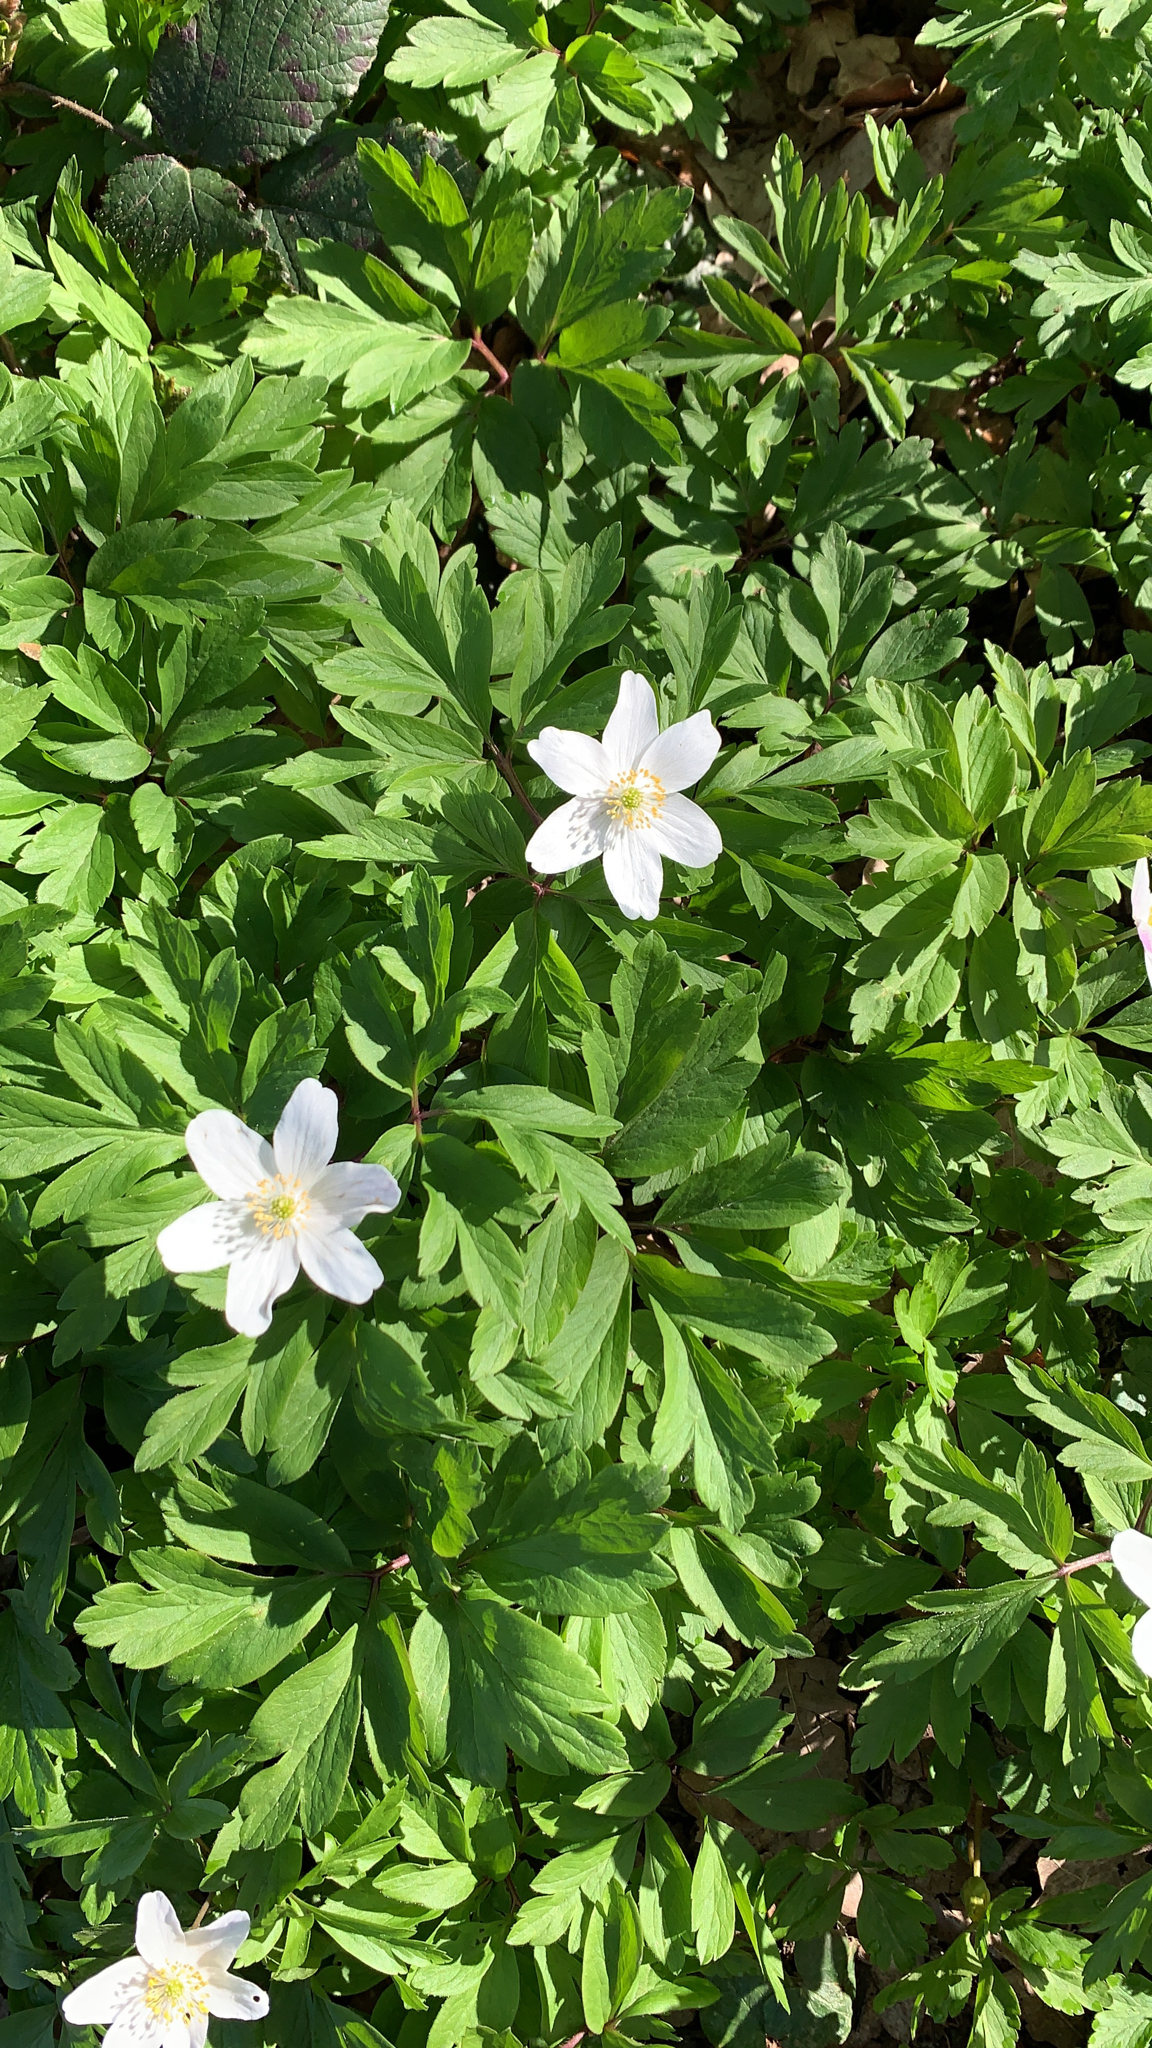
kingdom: Plantae
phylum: Tracheophyta
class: Magnoliopsida
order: Ranunculales
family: Ranunculaceae
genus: Anemone
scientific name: Anemone nemorosa
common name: Wood anemone
